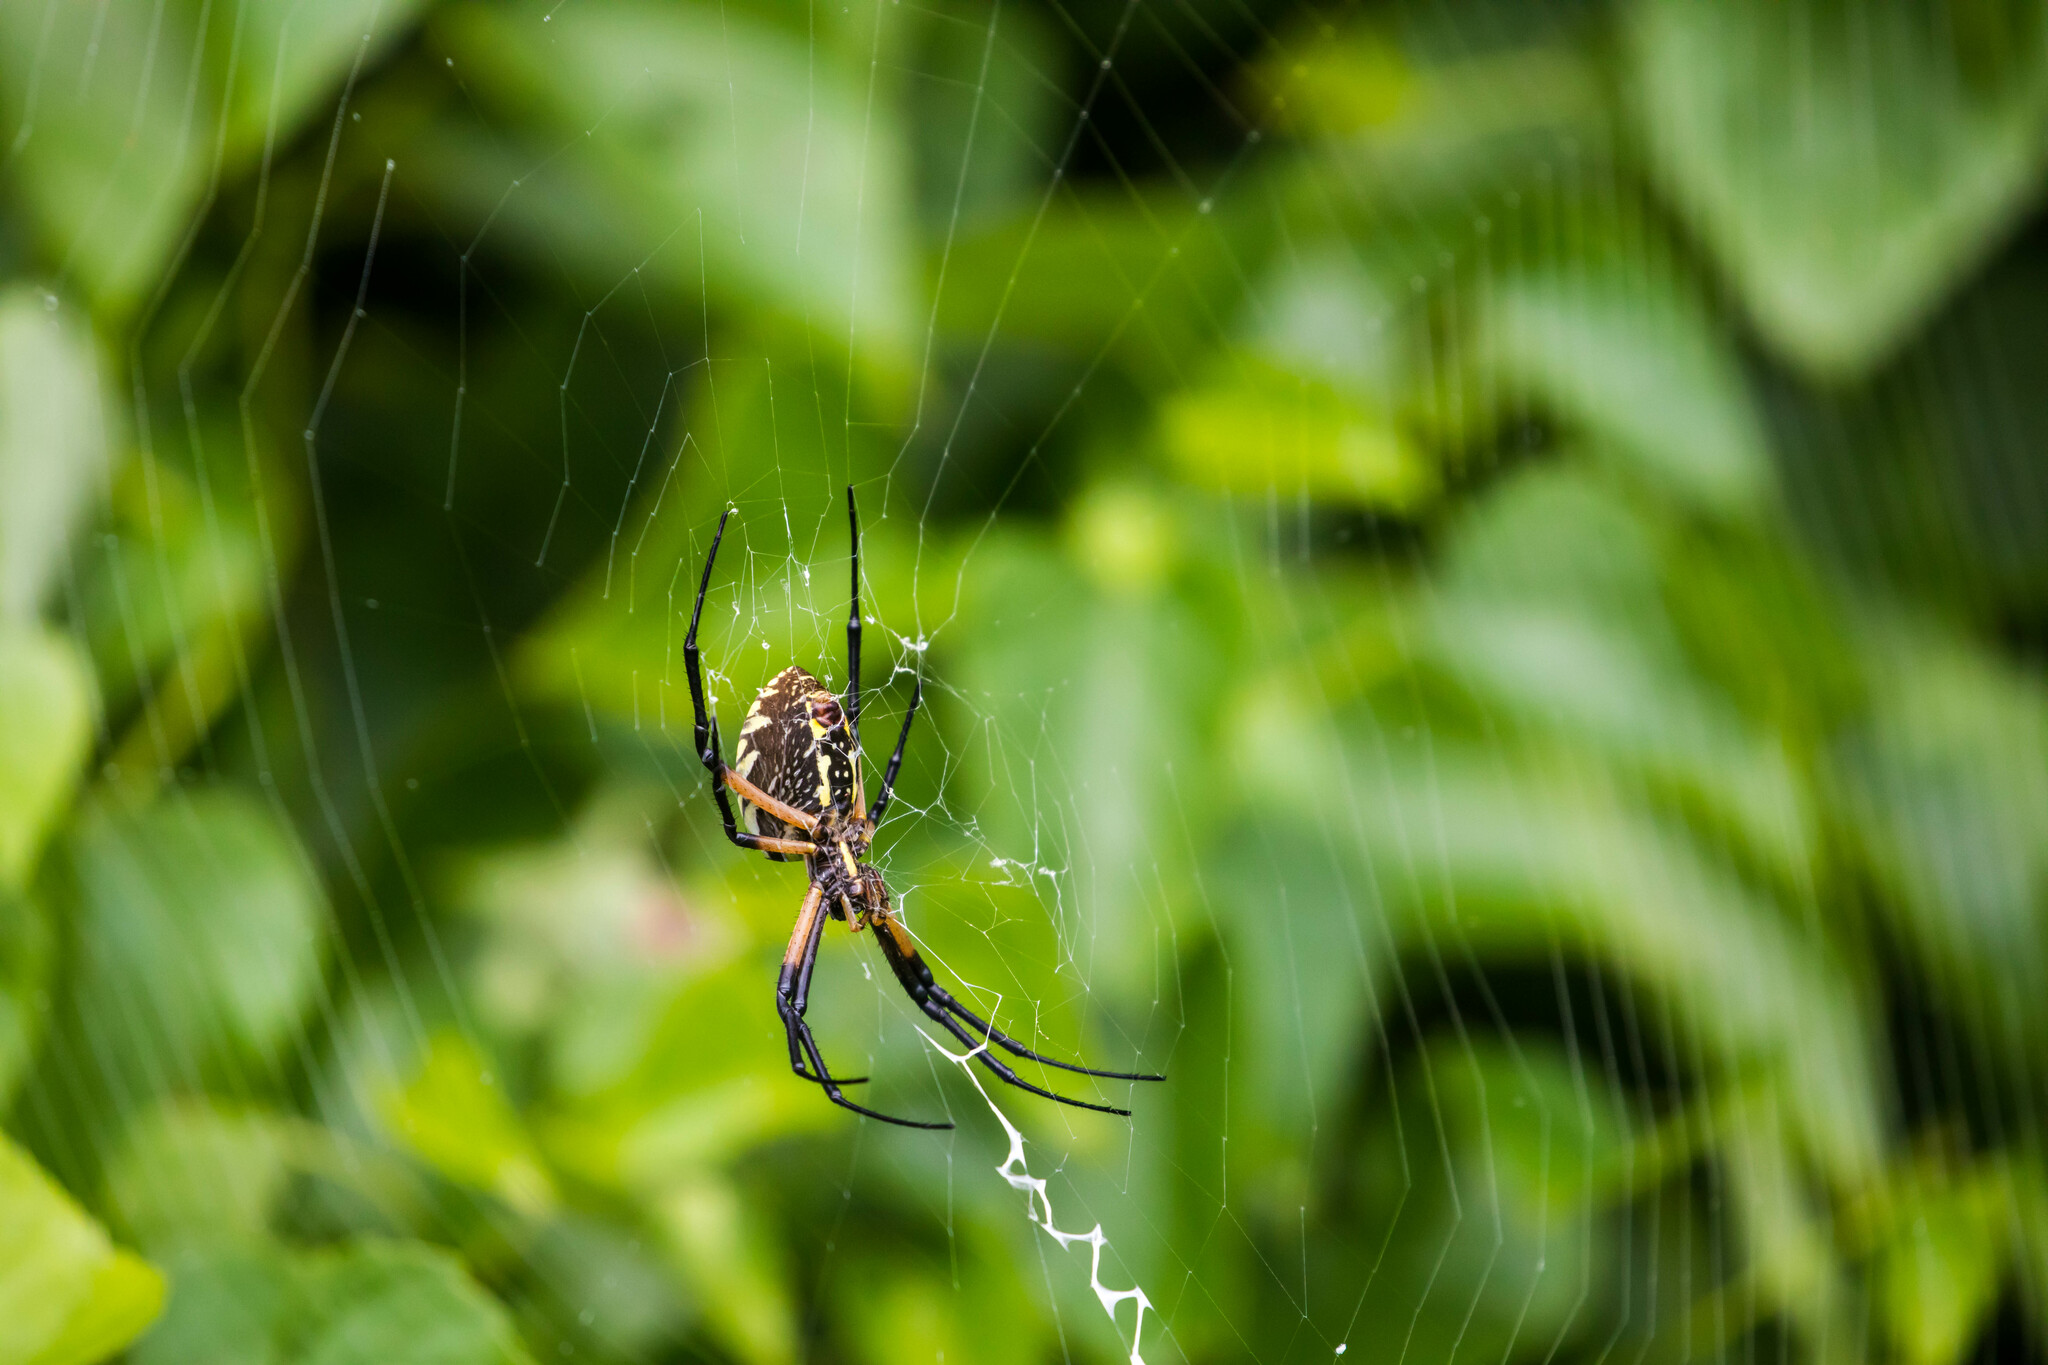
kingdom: Animalia
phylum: Arthropoda
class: Arachnida
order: Araneae
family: Araneidae
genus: Argiope
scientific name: Argiope aurantia
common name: Orb weavers
